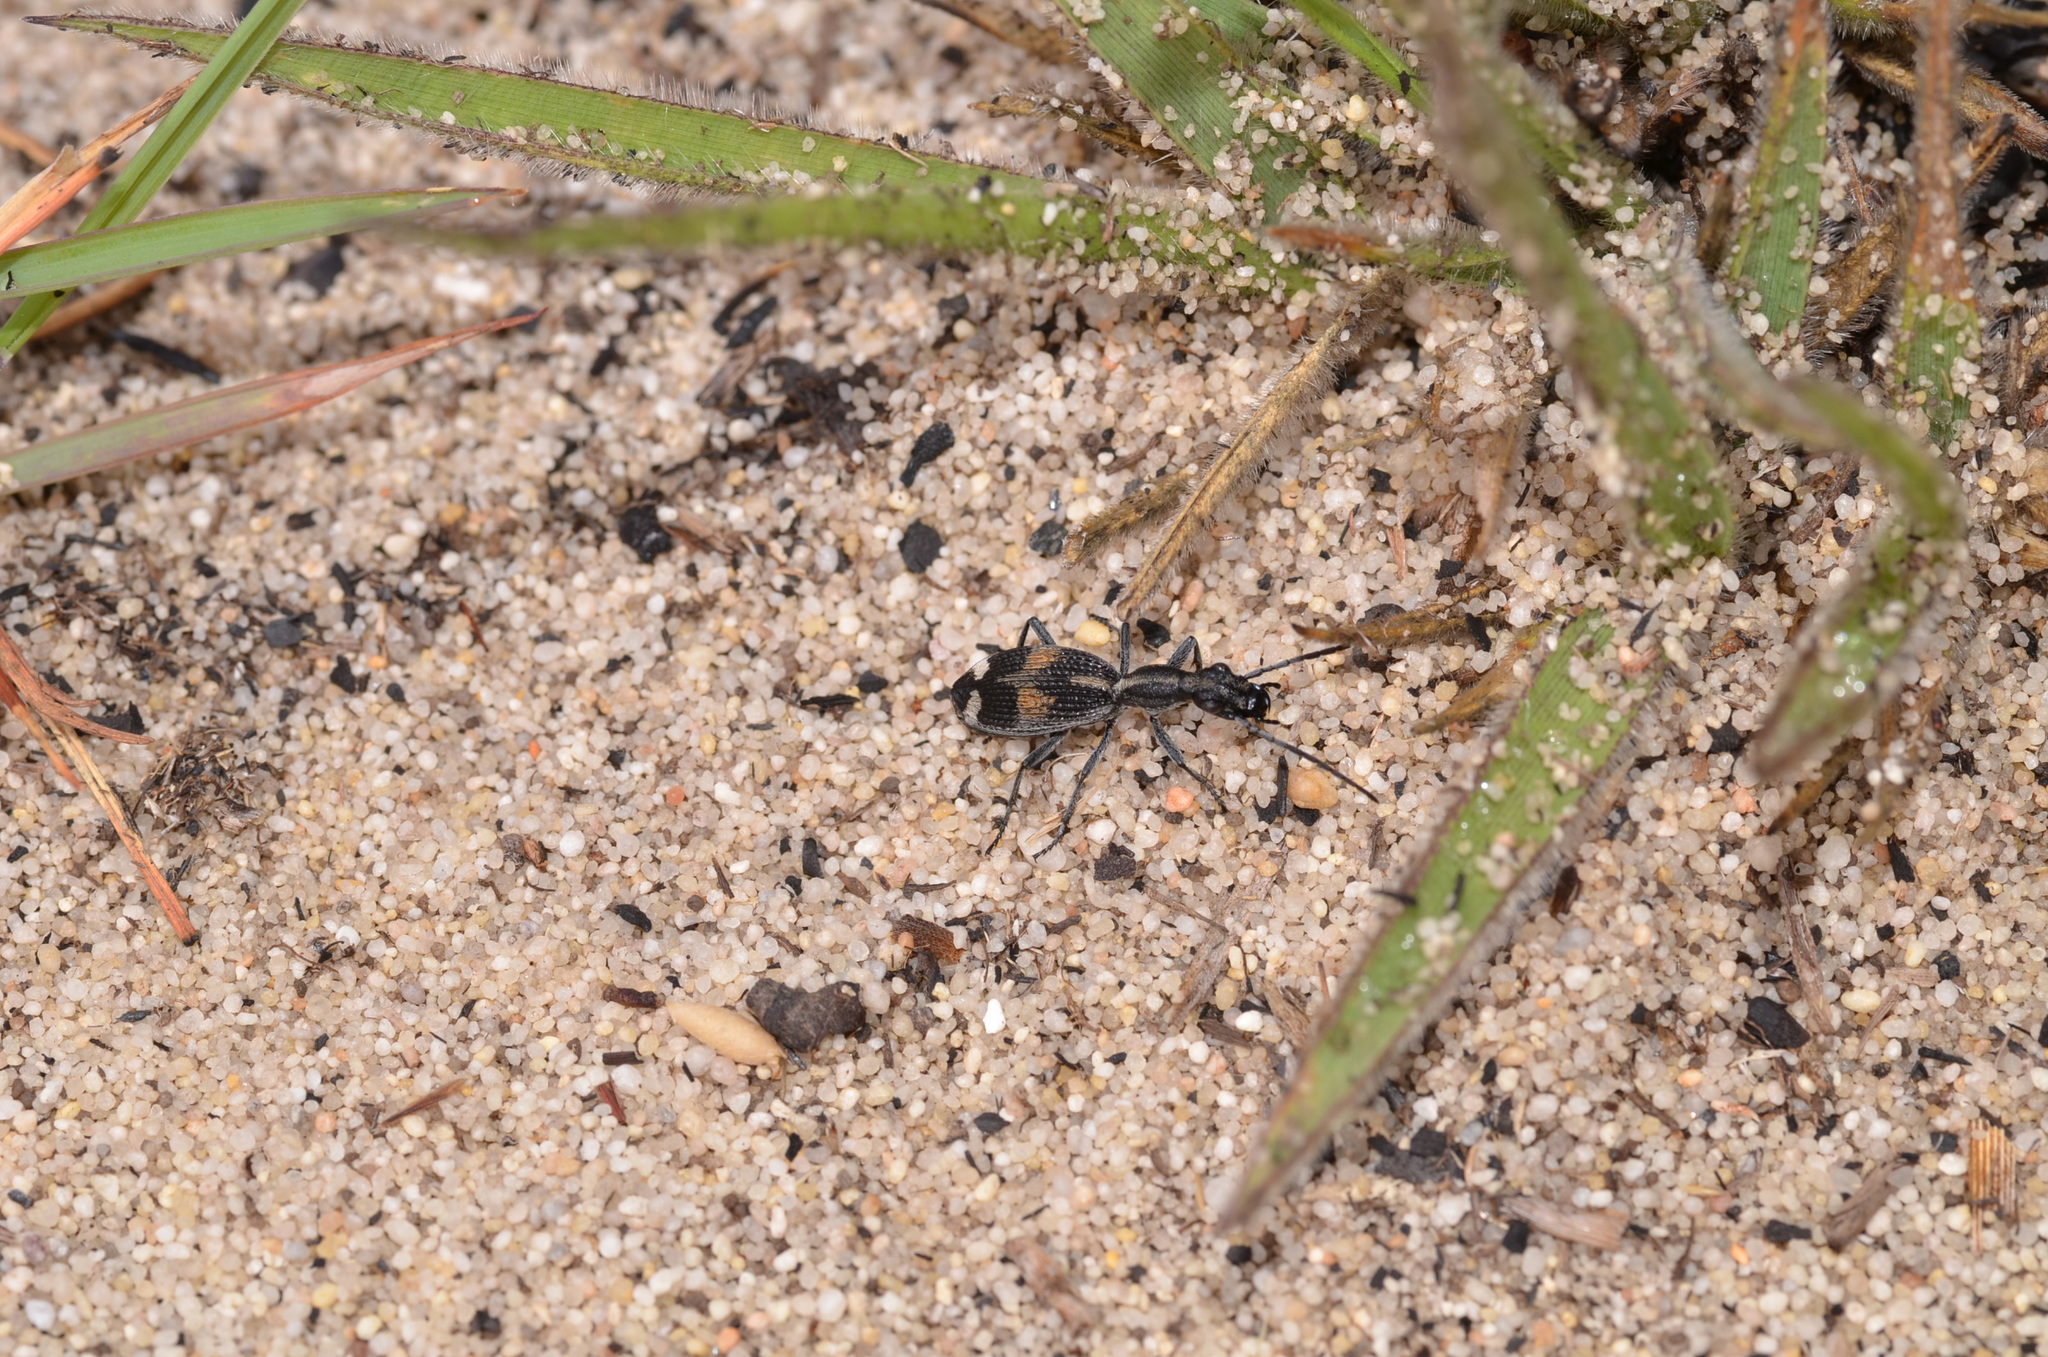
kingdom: Animalia
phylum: Arthropoda
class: Insecta
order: Coleoptera
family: Carabidae
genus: Cypholoba
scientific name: Cypholoba tenuicollis
